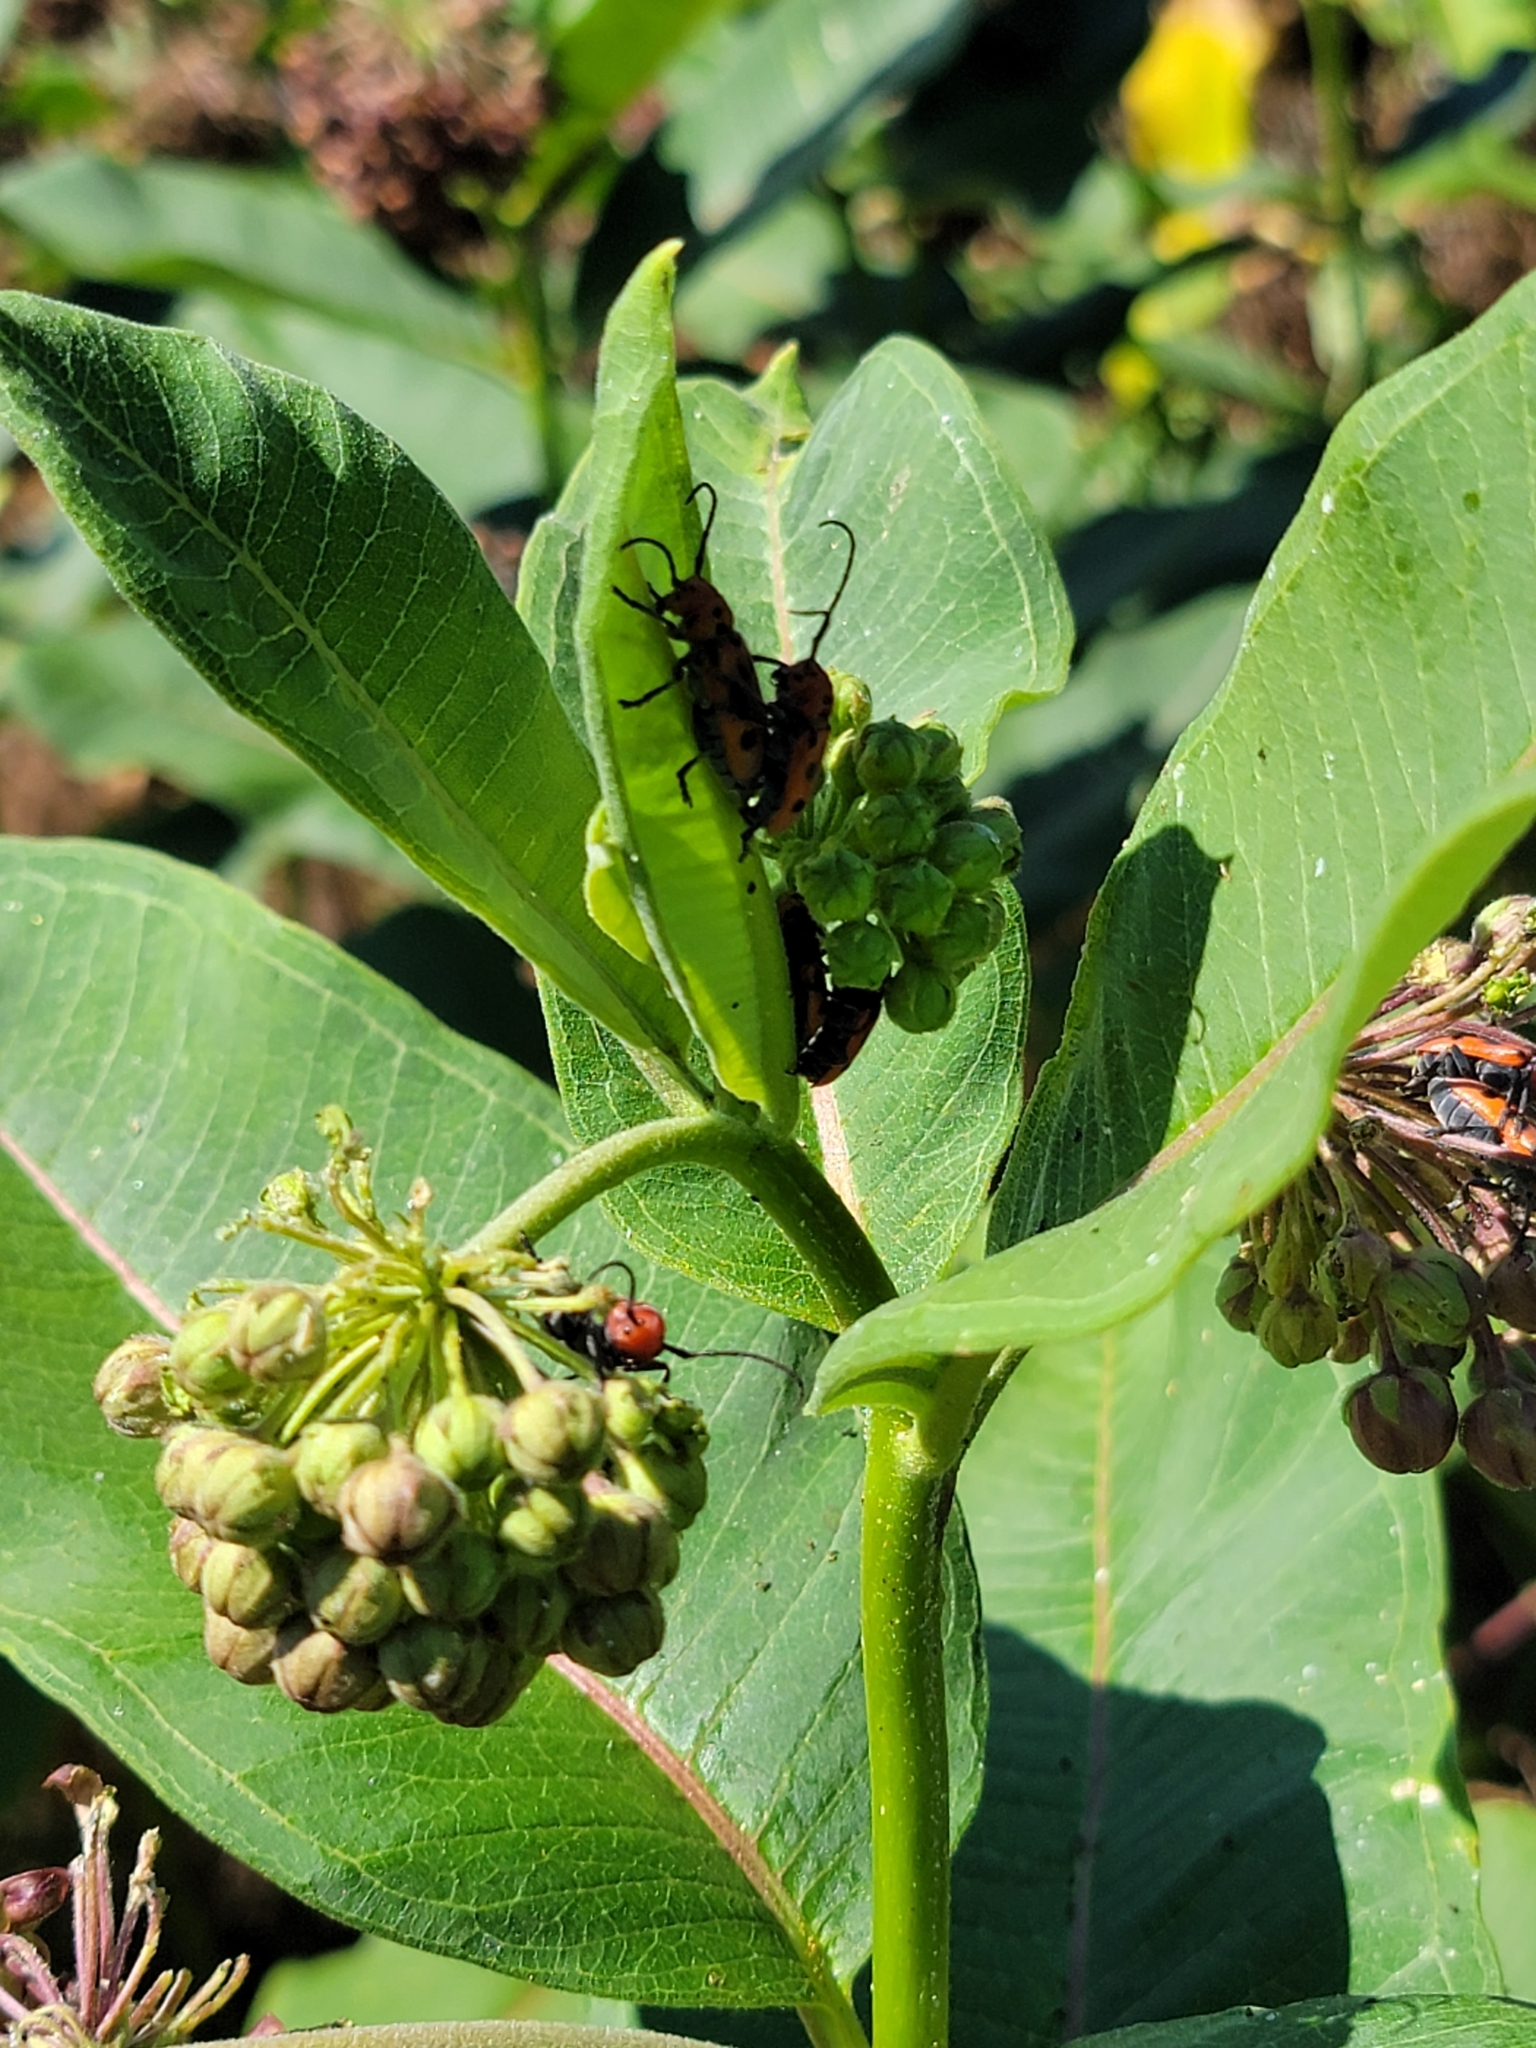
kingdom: Animalia
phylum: Arthropoda
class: Insecta
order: Coleoptera
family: Cerambycidae
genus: Tetraopes
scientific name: Tetraopes tetrophthalmus
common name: Red milkweed beetle
